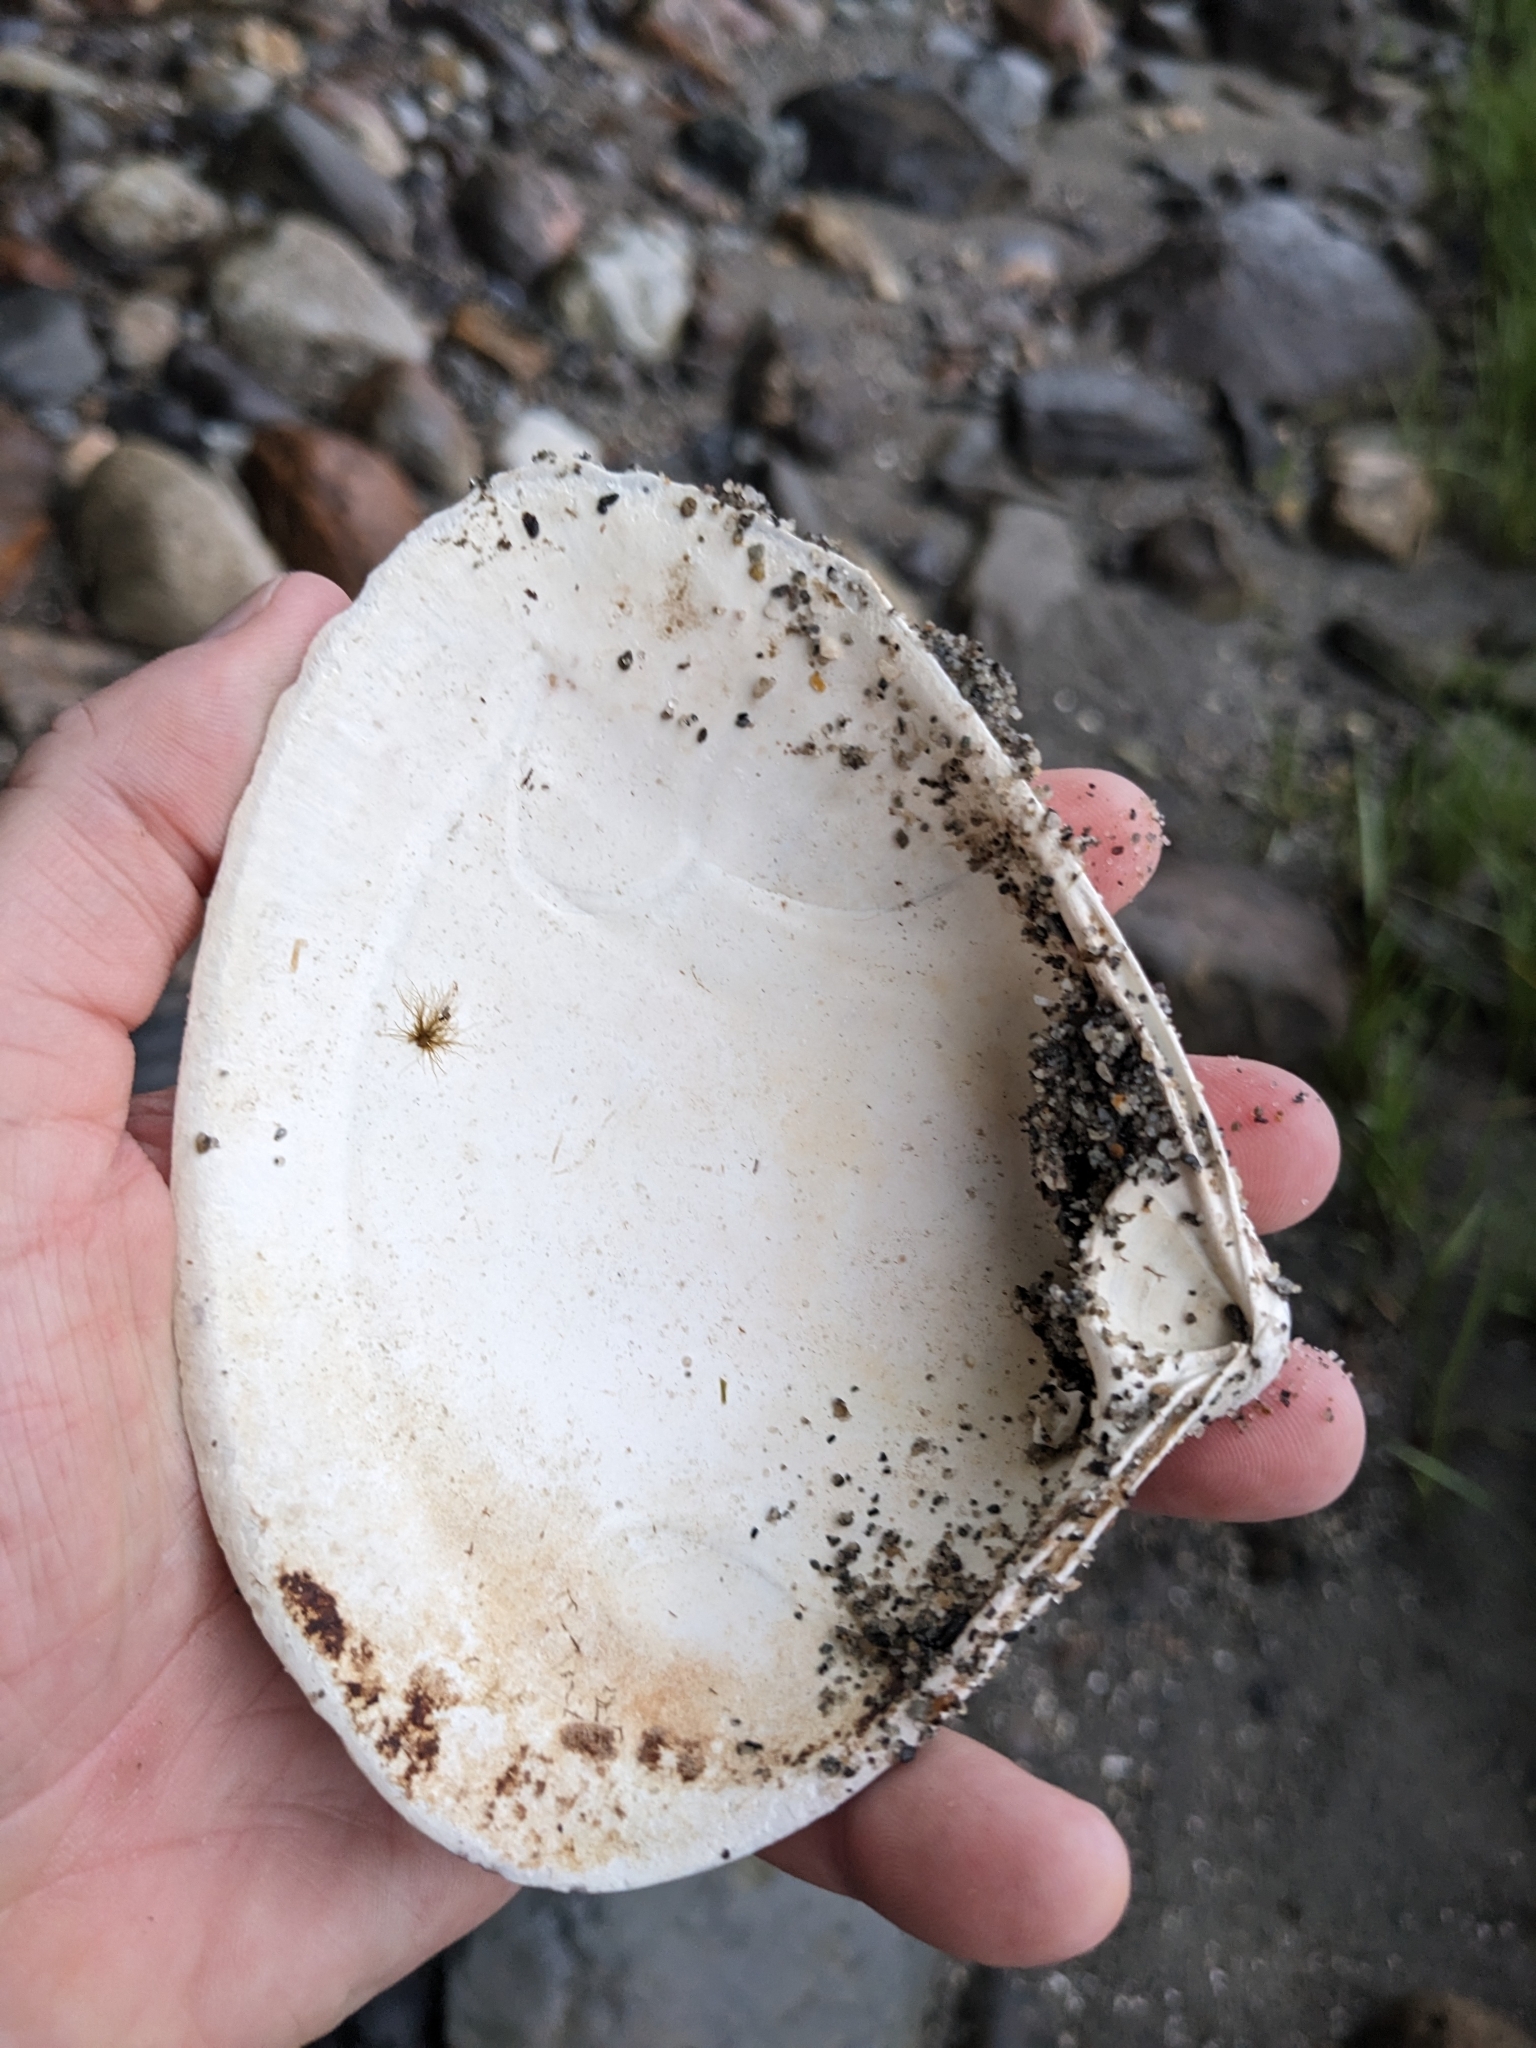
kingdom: Animalia
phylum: Mollusca
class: Bivalvia
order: Venerida
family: Mactridae
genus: Spisula
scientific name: Spisula solidissima
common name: Atlantic surf clam
